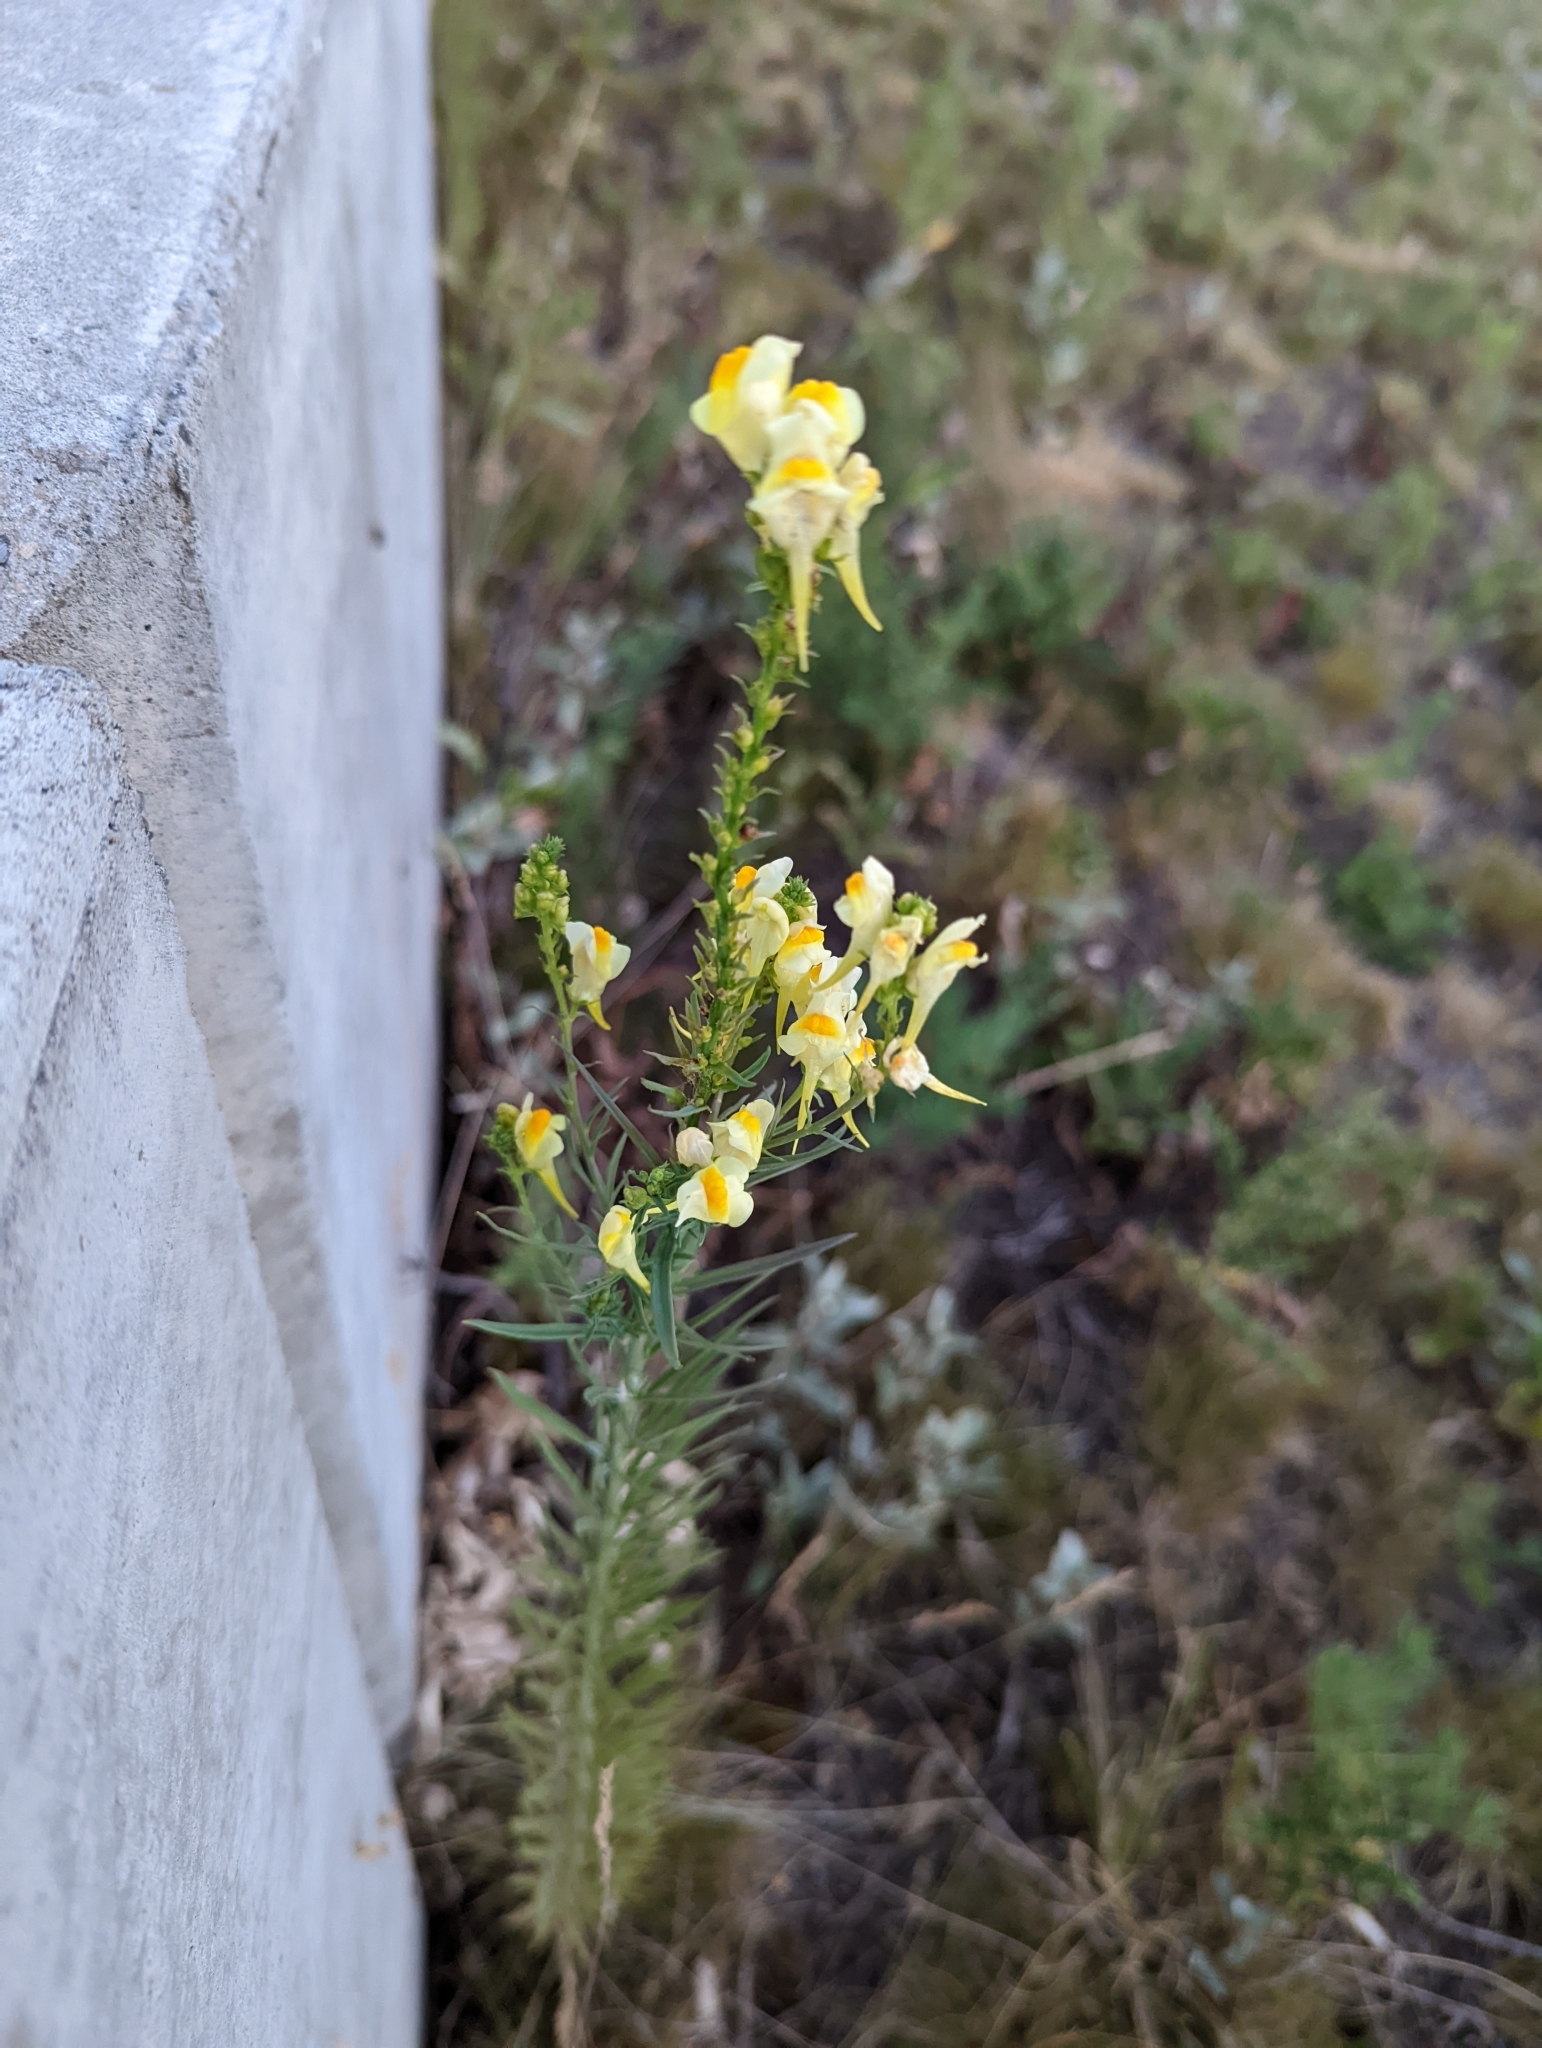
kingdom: Plantae
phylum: Tracheophyta
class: Magnoliopsida
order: Lamiales
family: Plantaginaceae
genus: Linaria
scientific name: Linaria vulgaris
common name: Butter and eggs
